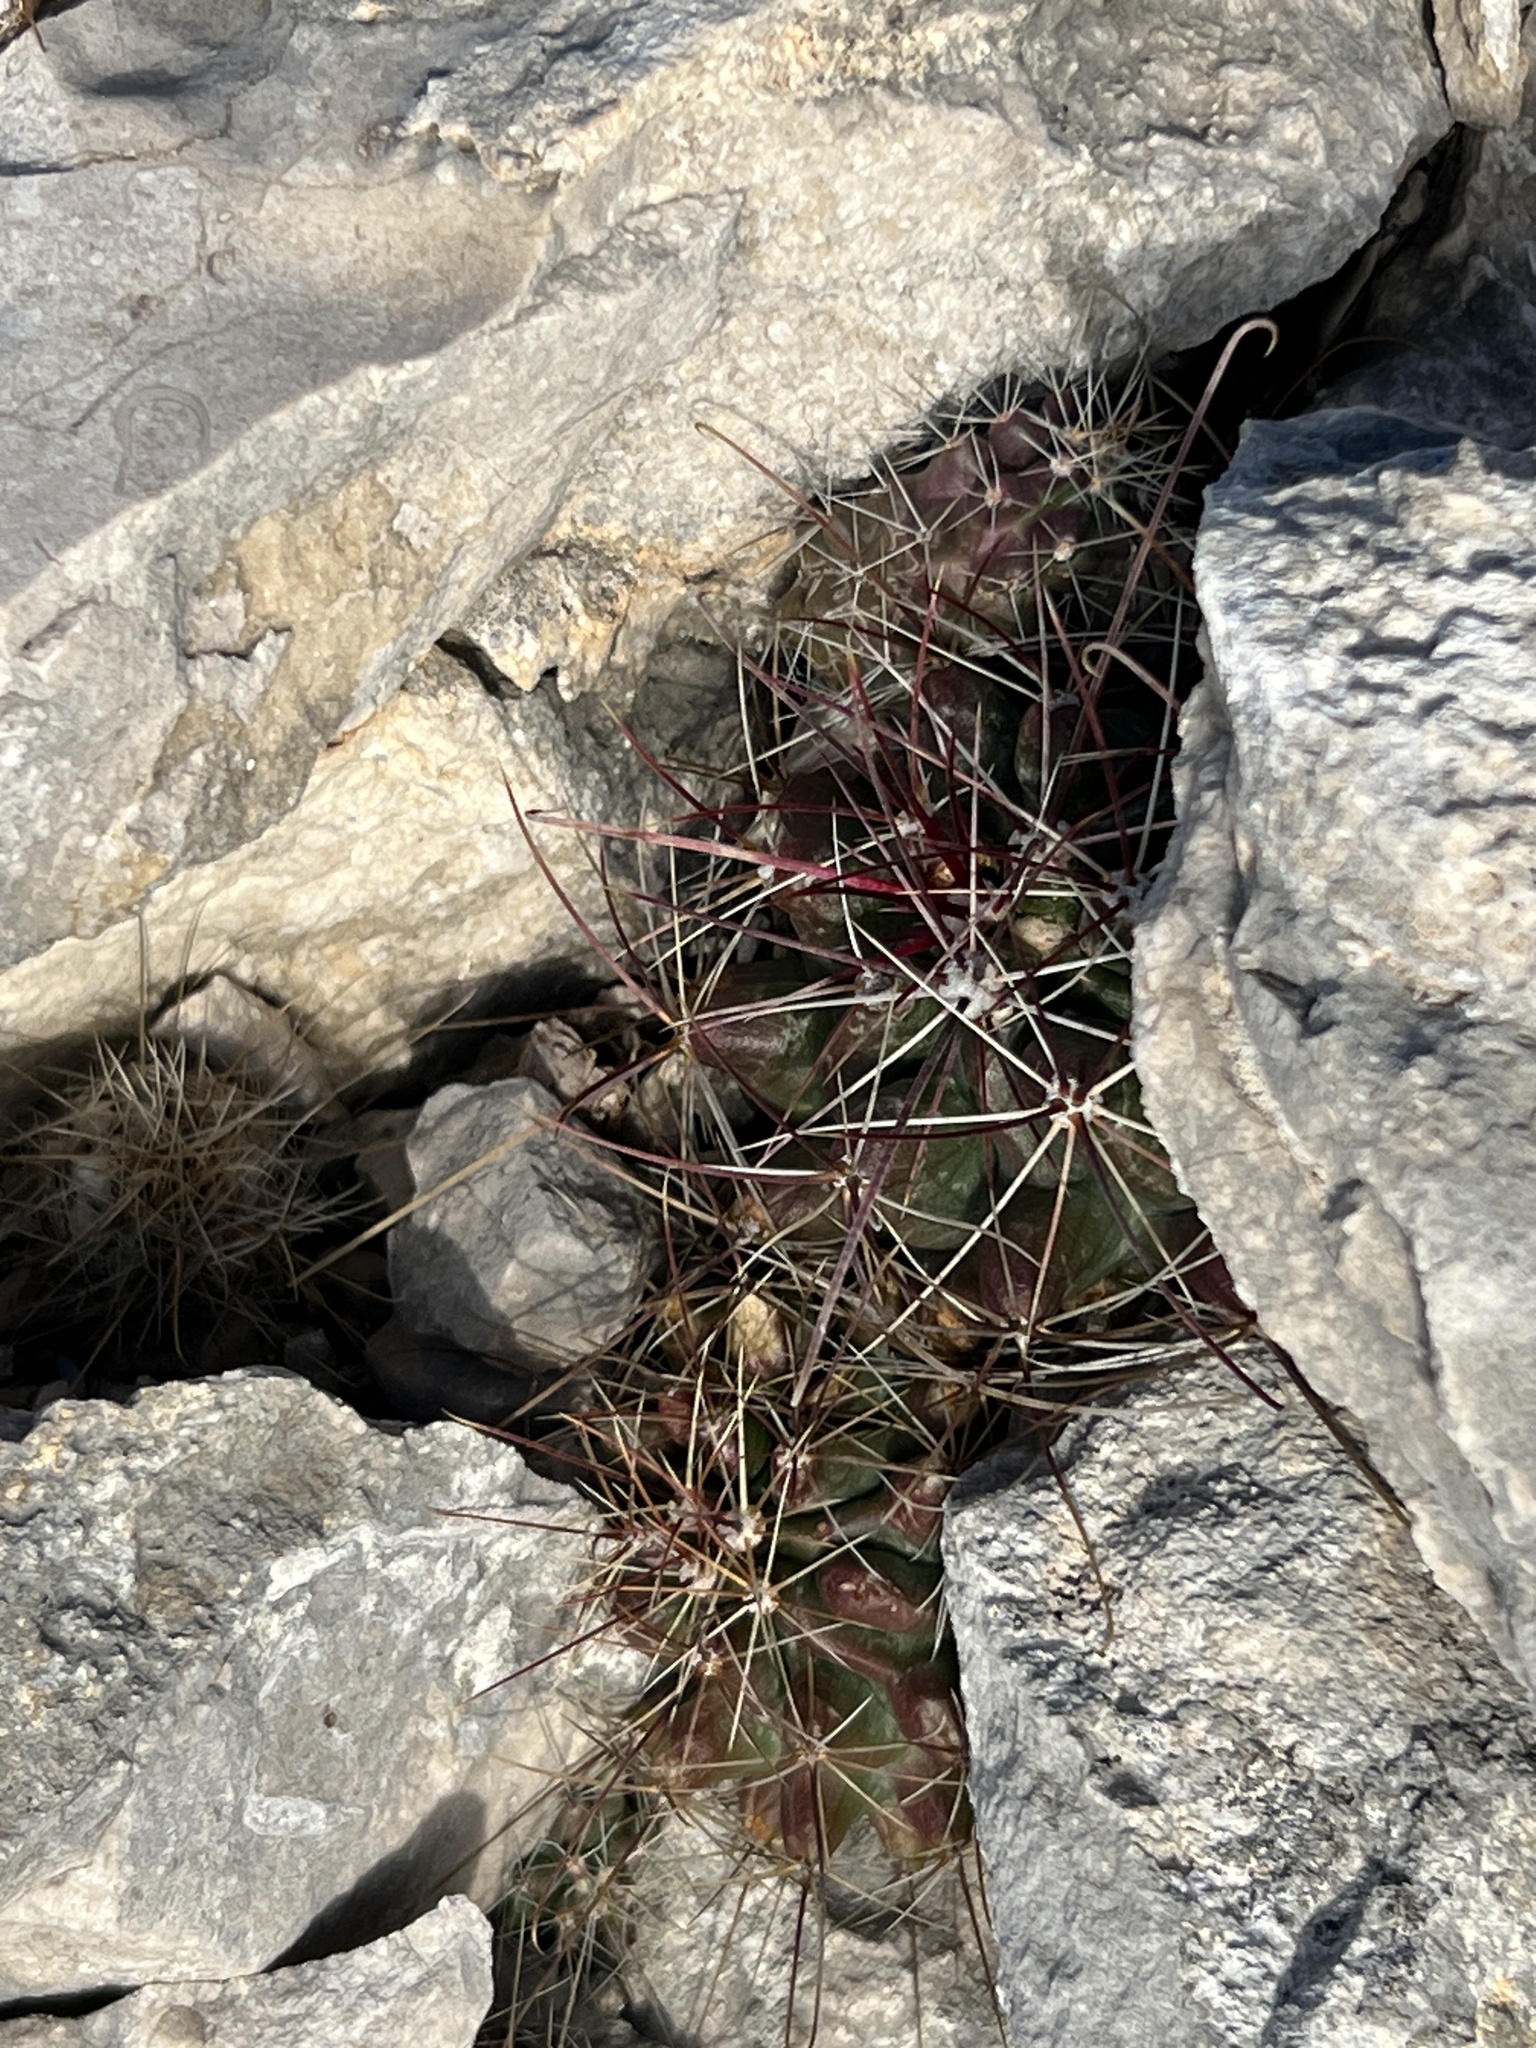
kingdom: Plantae
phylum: Tracheophyta
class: Magnoliopsida
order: Caryophyllales
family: Cactaceae
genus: Bisnaga
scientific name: Bisnaga hamatacantha
